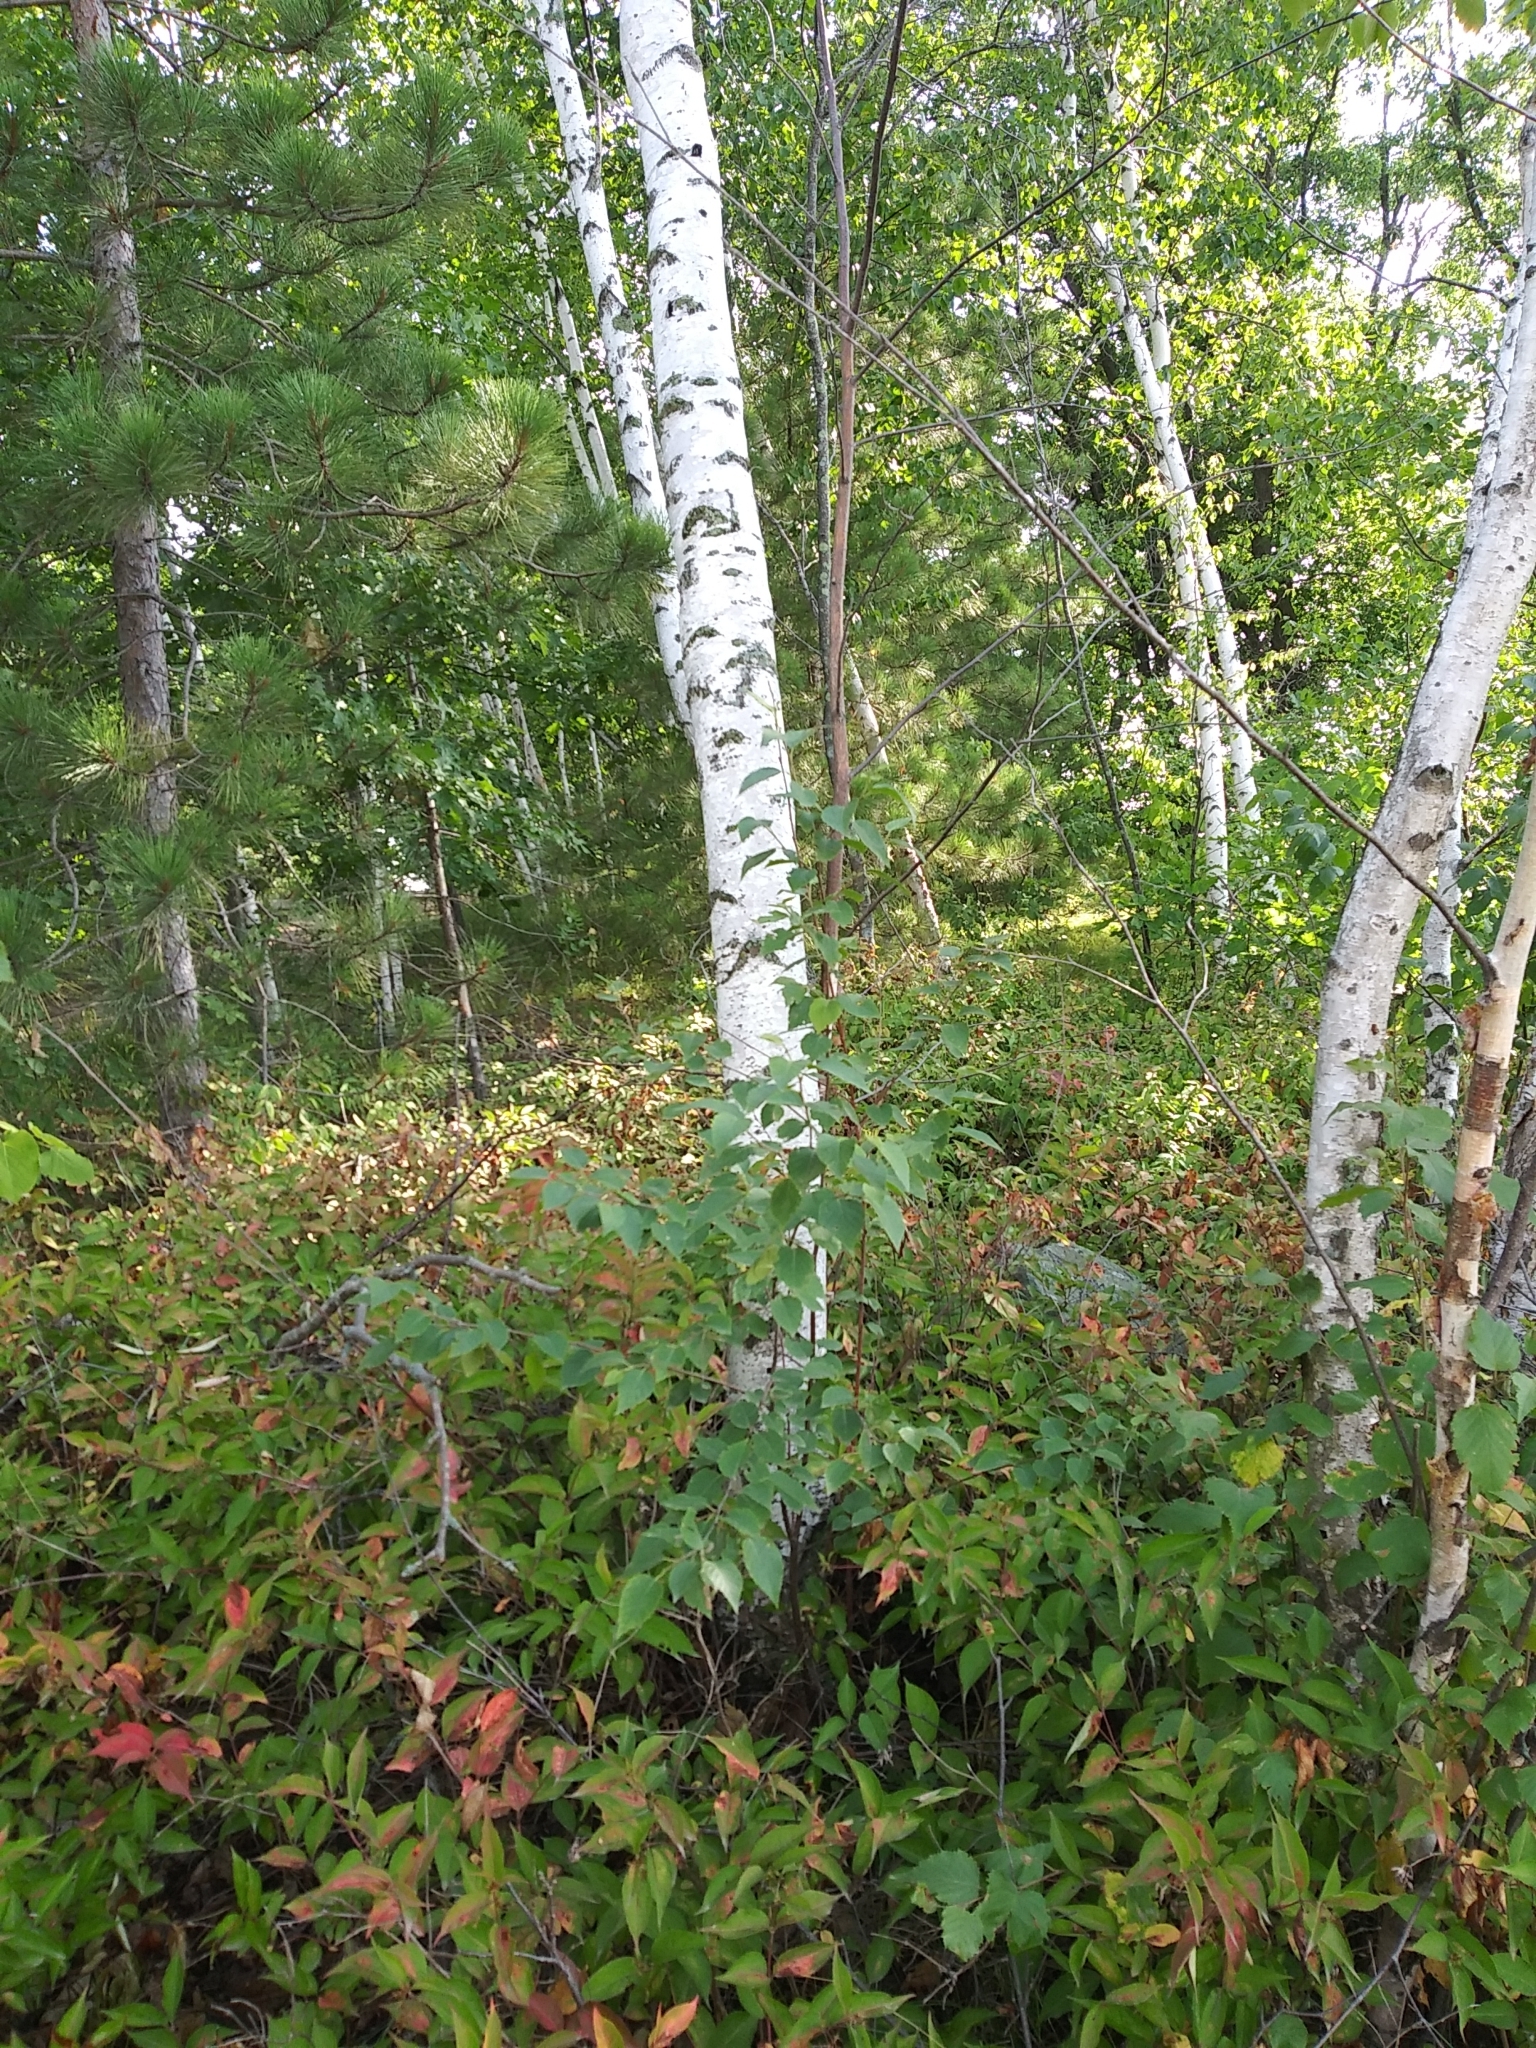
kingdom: Plantae
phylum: Tracheophyta
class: Magnoliopsida
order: Fagales
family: Betulaceae
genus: Betula
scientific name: Betula papyrifera
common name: Paper birch
